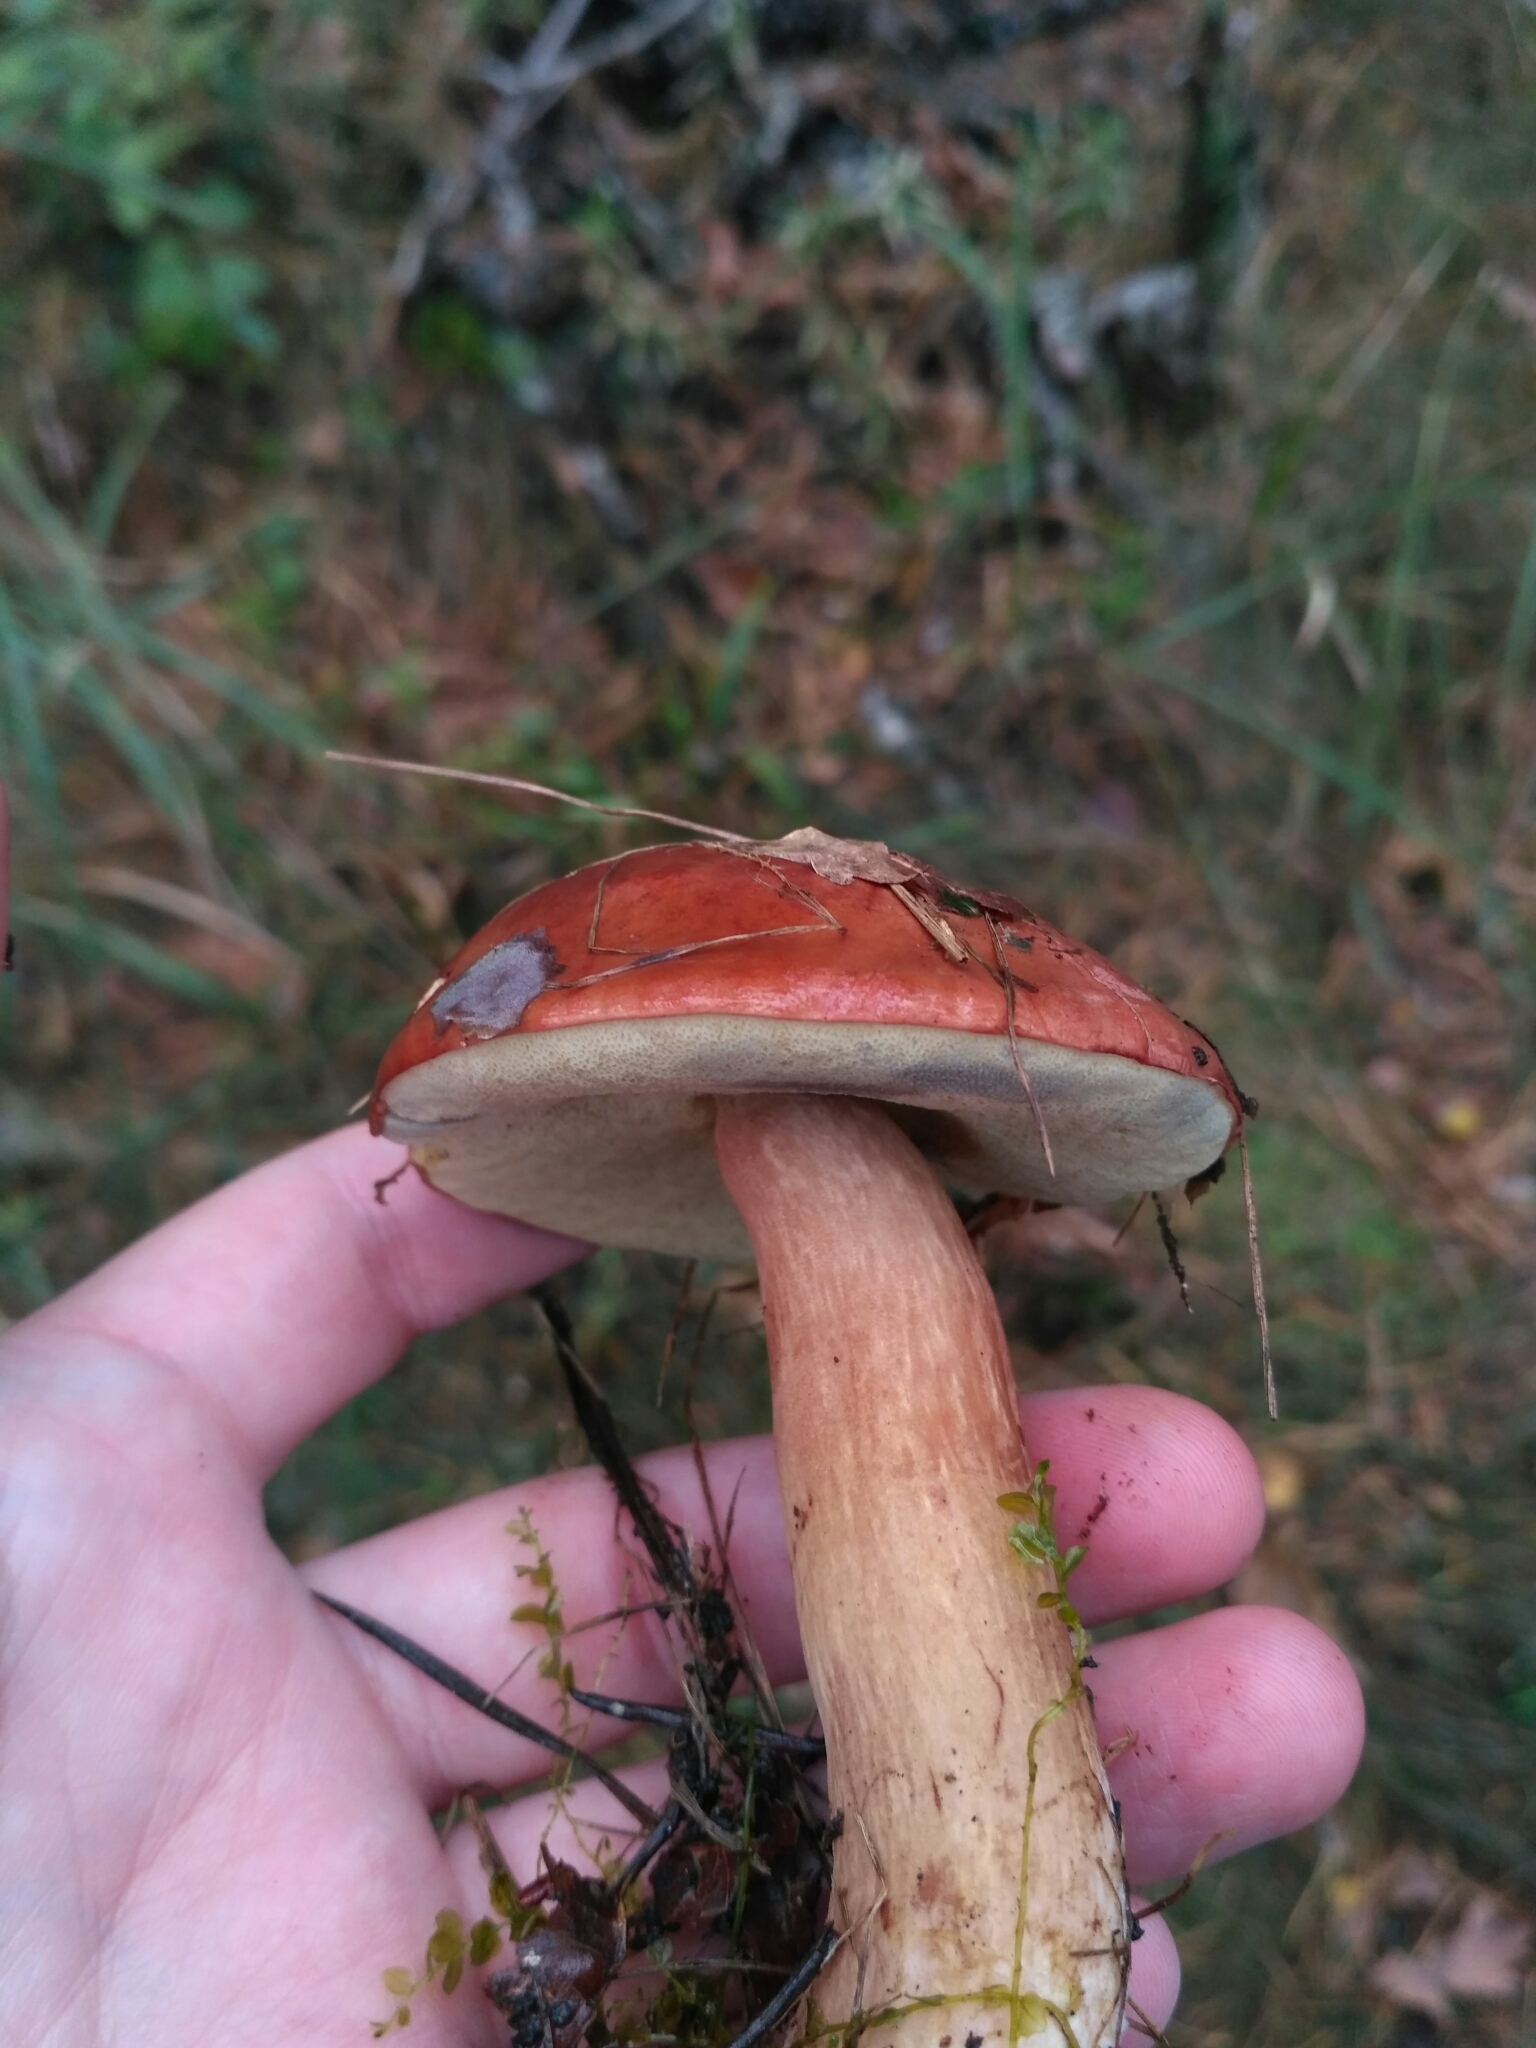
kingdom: Fungi
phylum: Basidiomycota
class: Agaricomycetes
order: Boletales
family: Boletaceae
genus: Imleria
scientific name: Imleria badia
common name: Bay bolete
